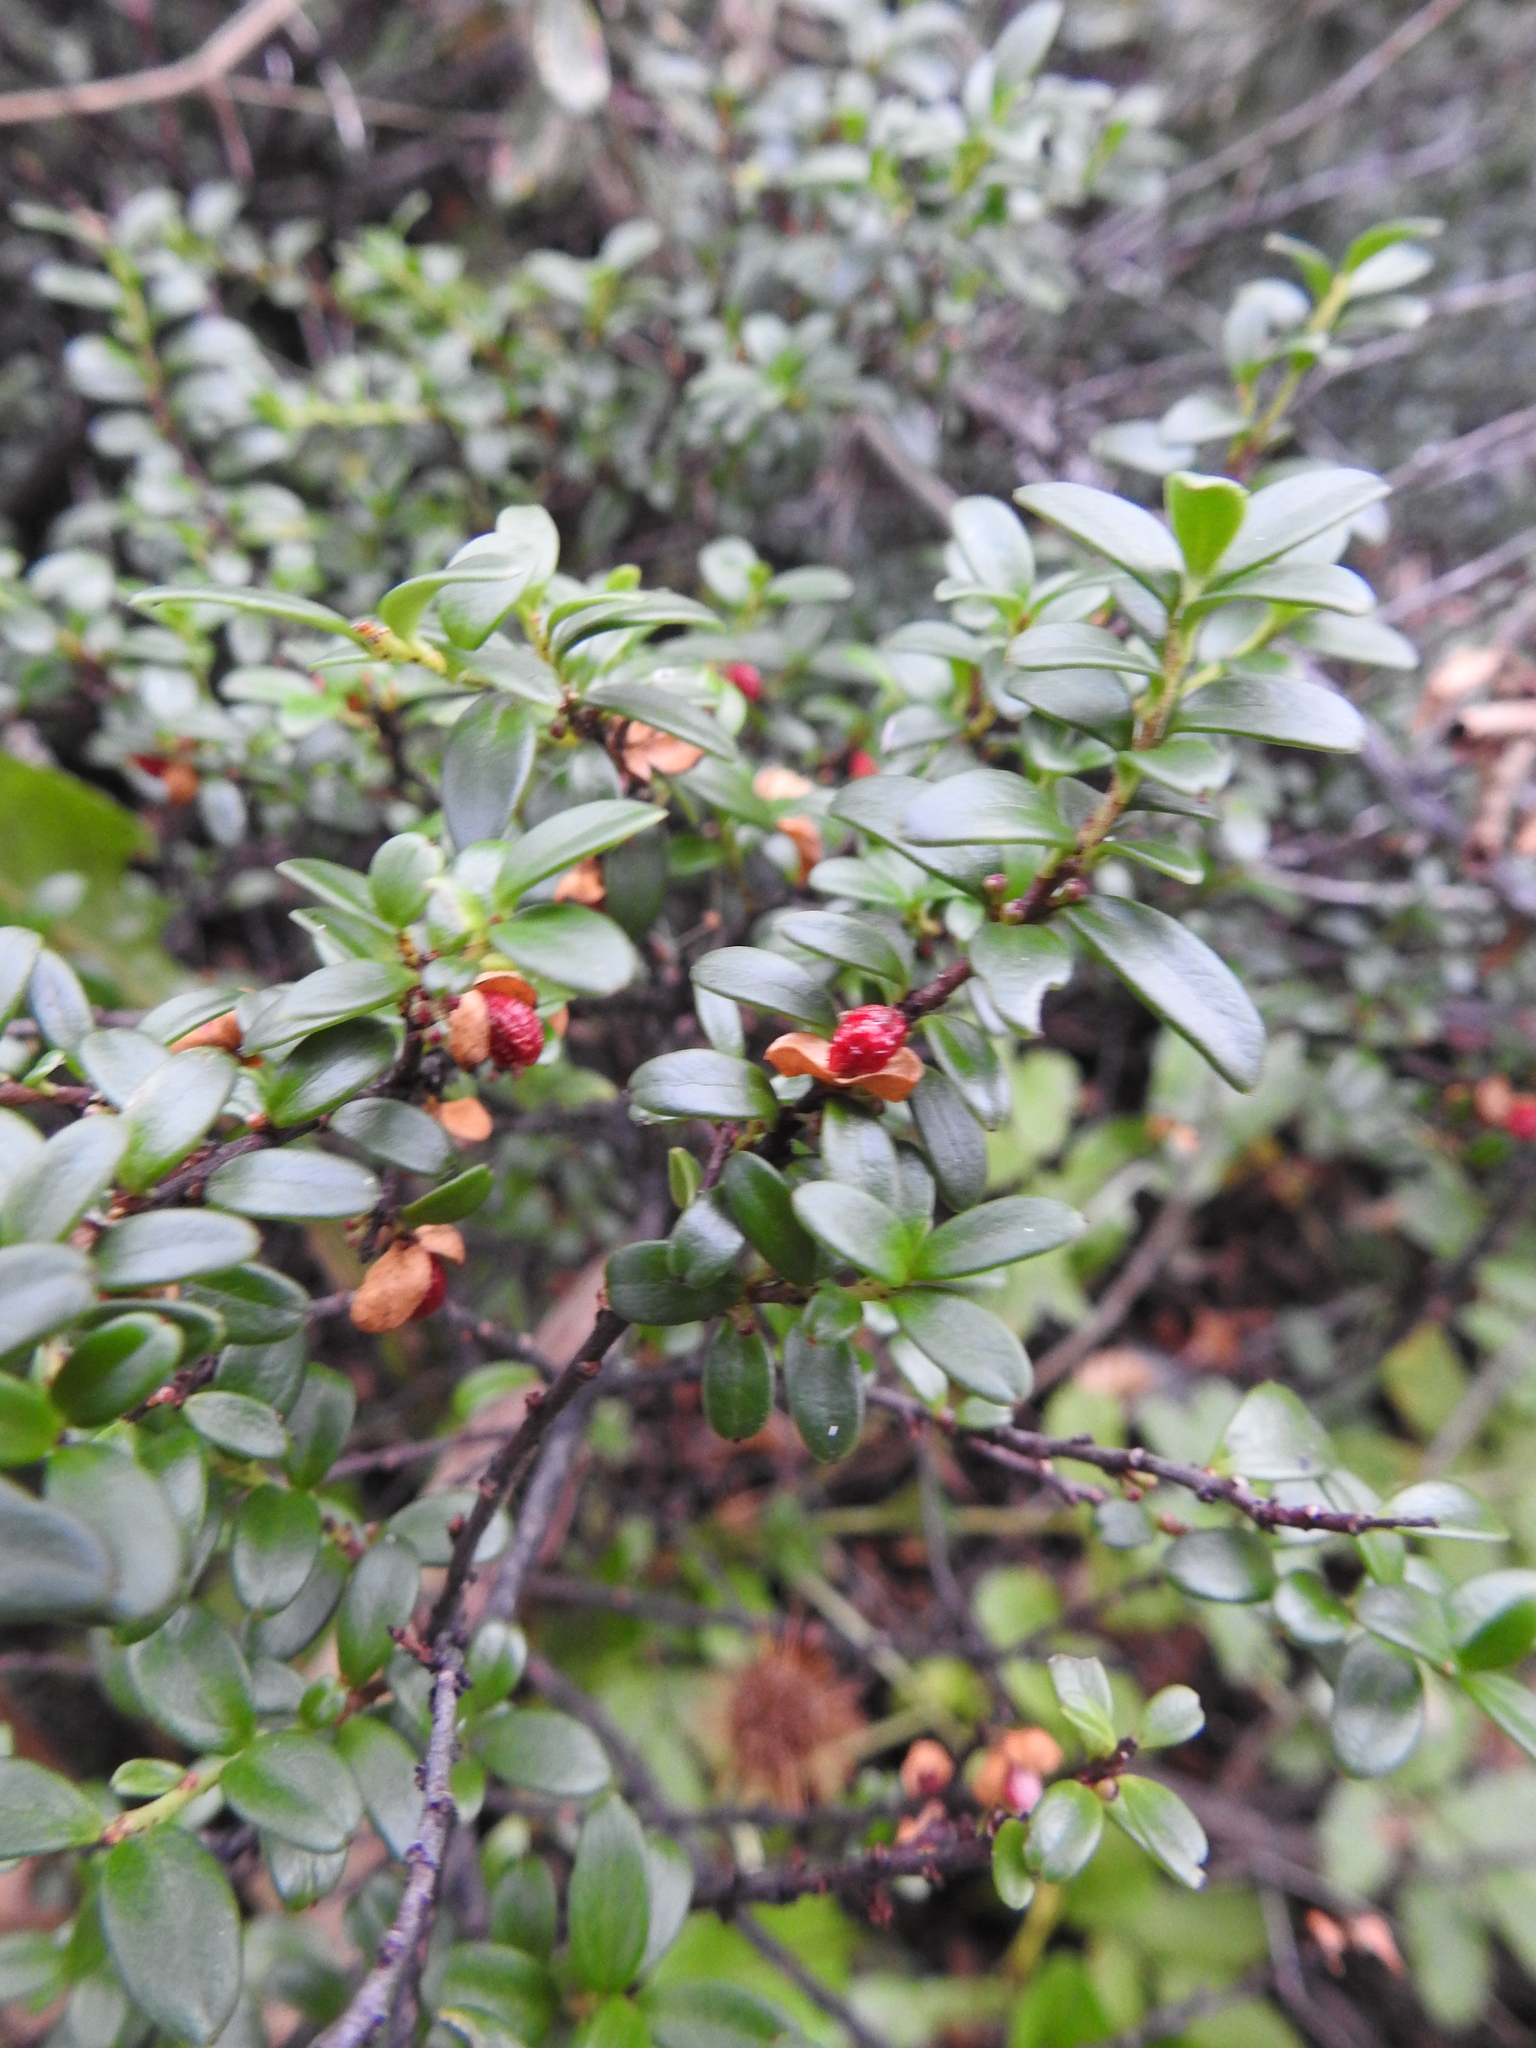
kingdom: Plantae
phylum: Tracheophyta
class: Magnoliopsida
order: Celastrales
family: Celastraceae
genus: Maytenus
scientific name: Maytenus disticha
